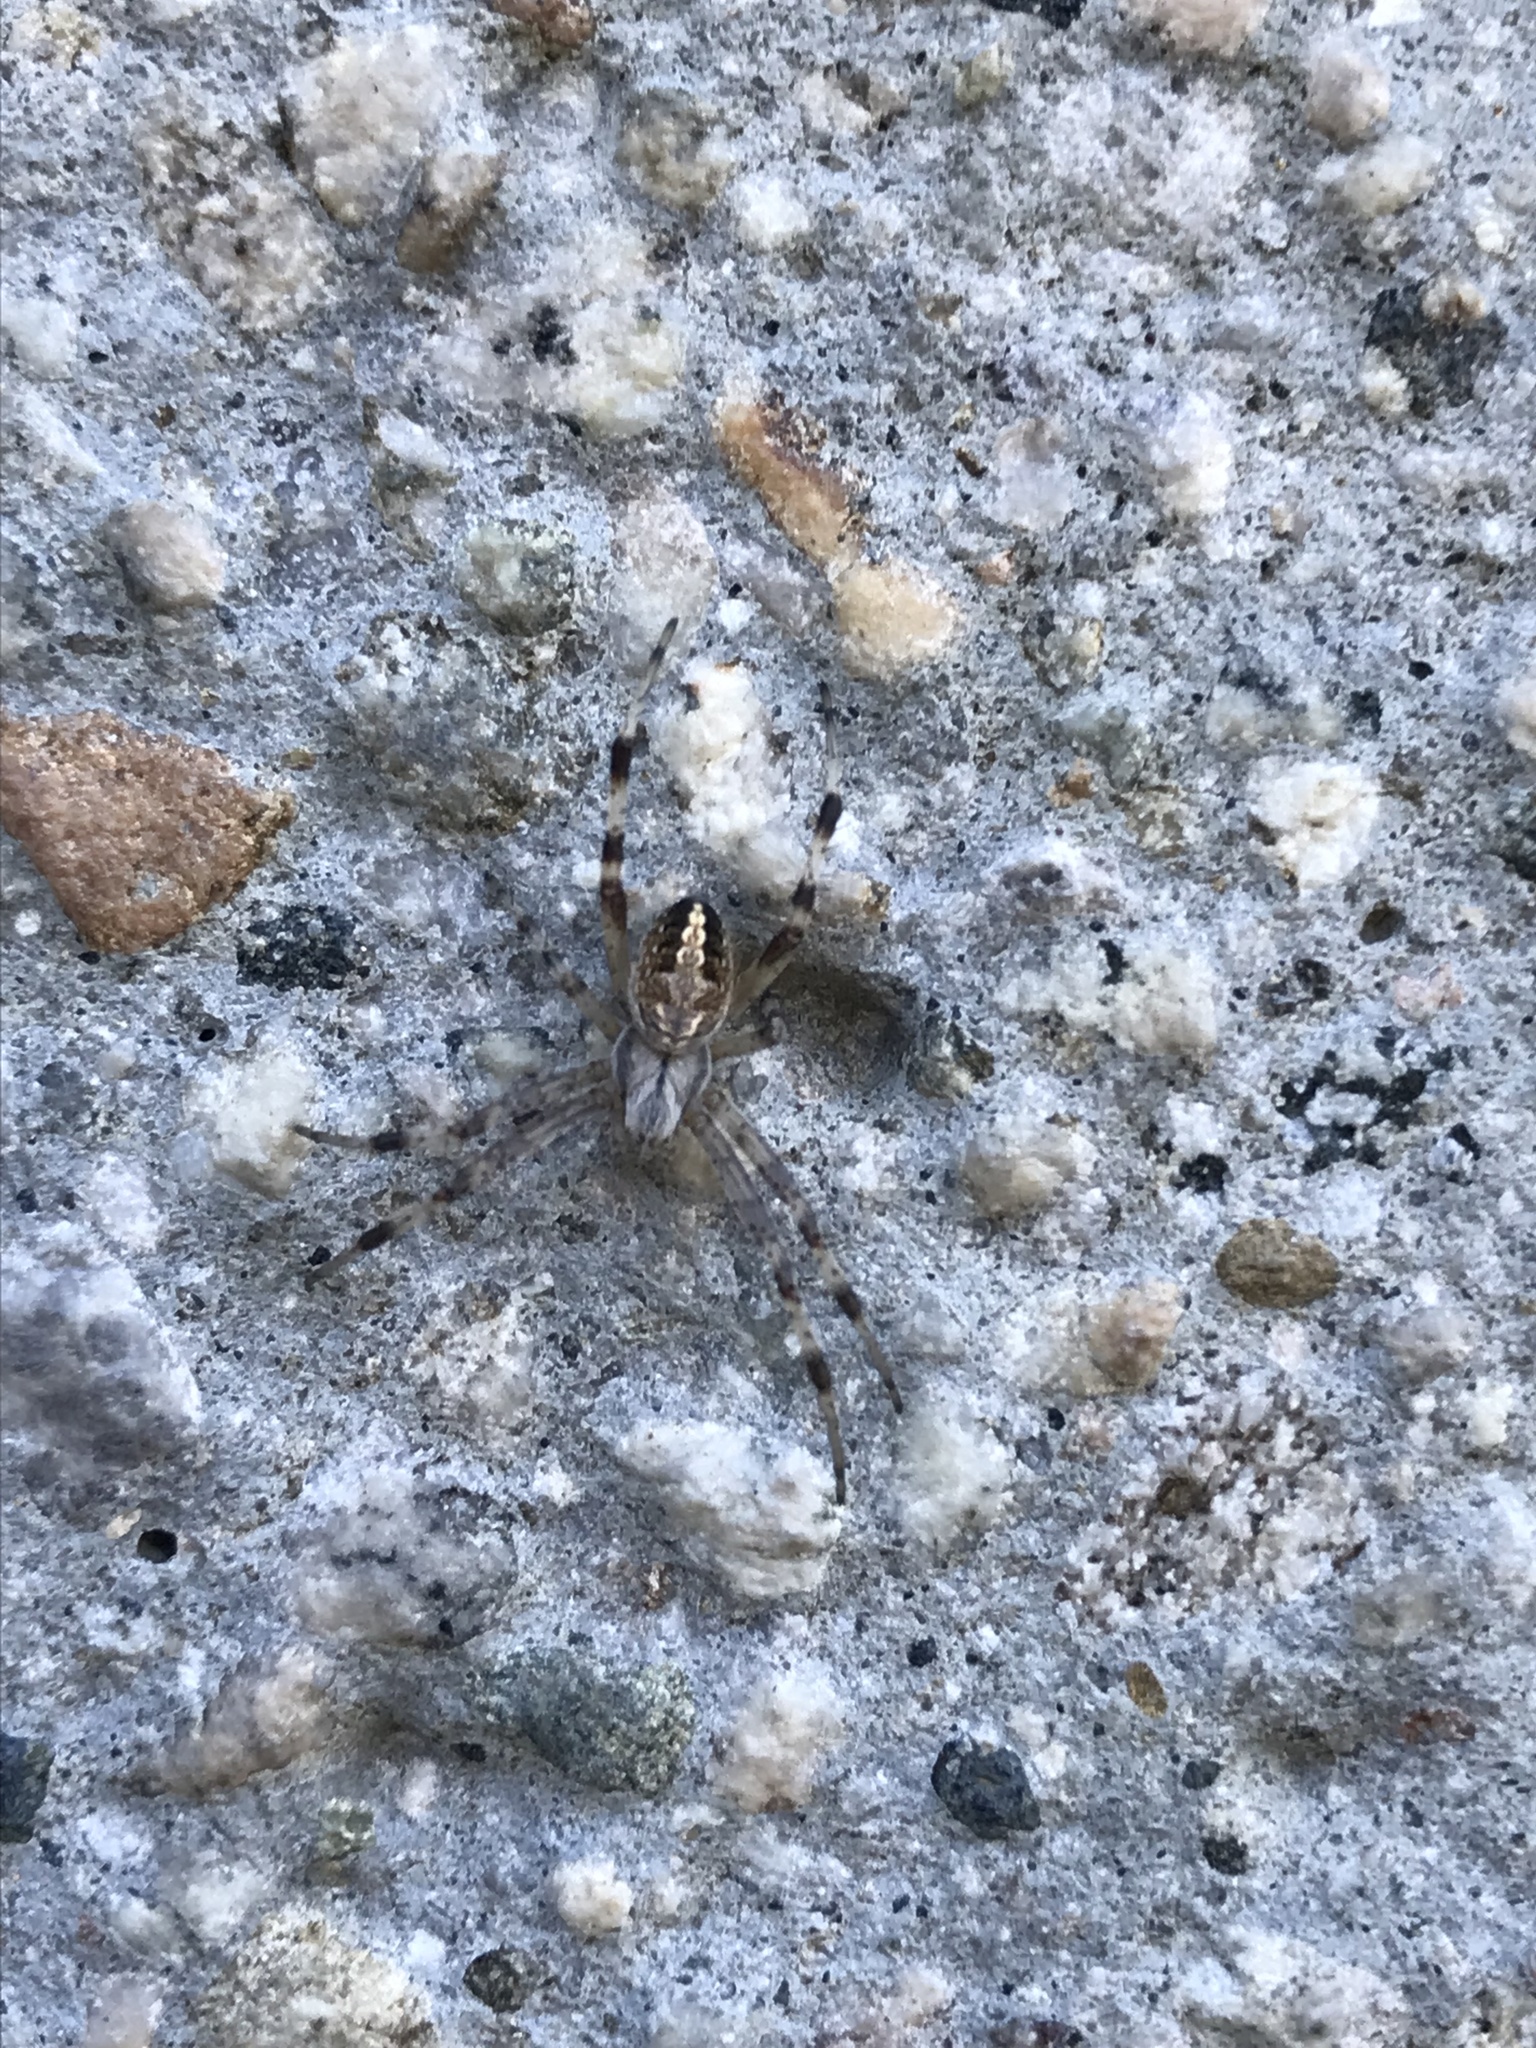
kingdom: Animalia
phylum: Arthropoda
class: Arachnida
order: Araneae
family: Araneidae
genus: Neoscona
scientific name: Neoscona oaxacensis
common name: Orb weavers
